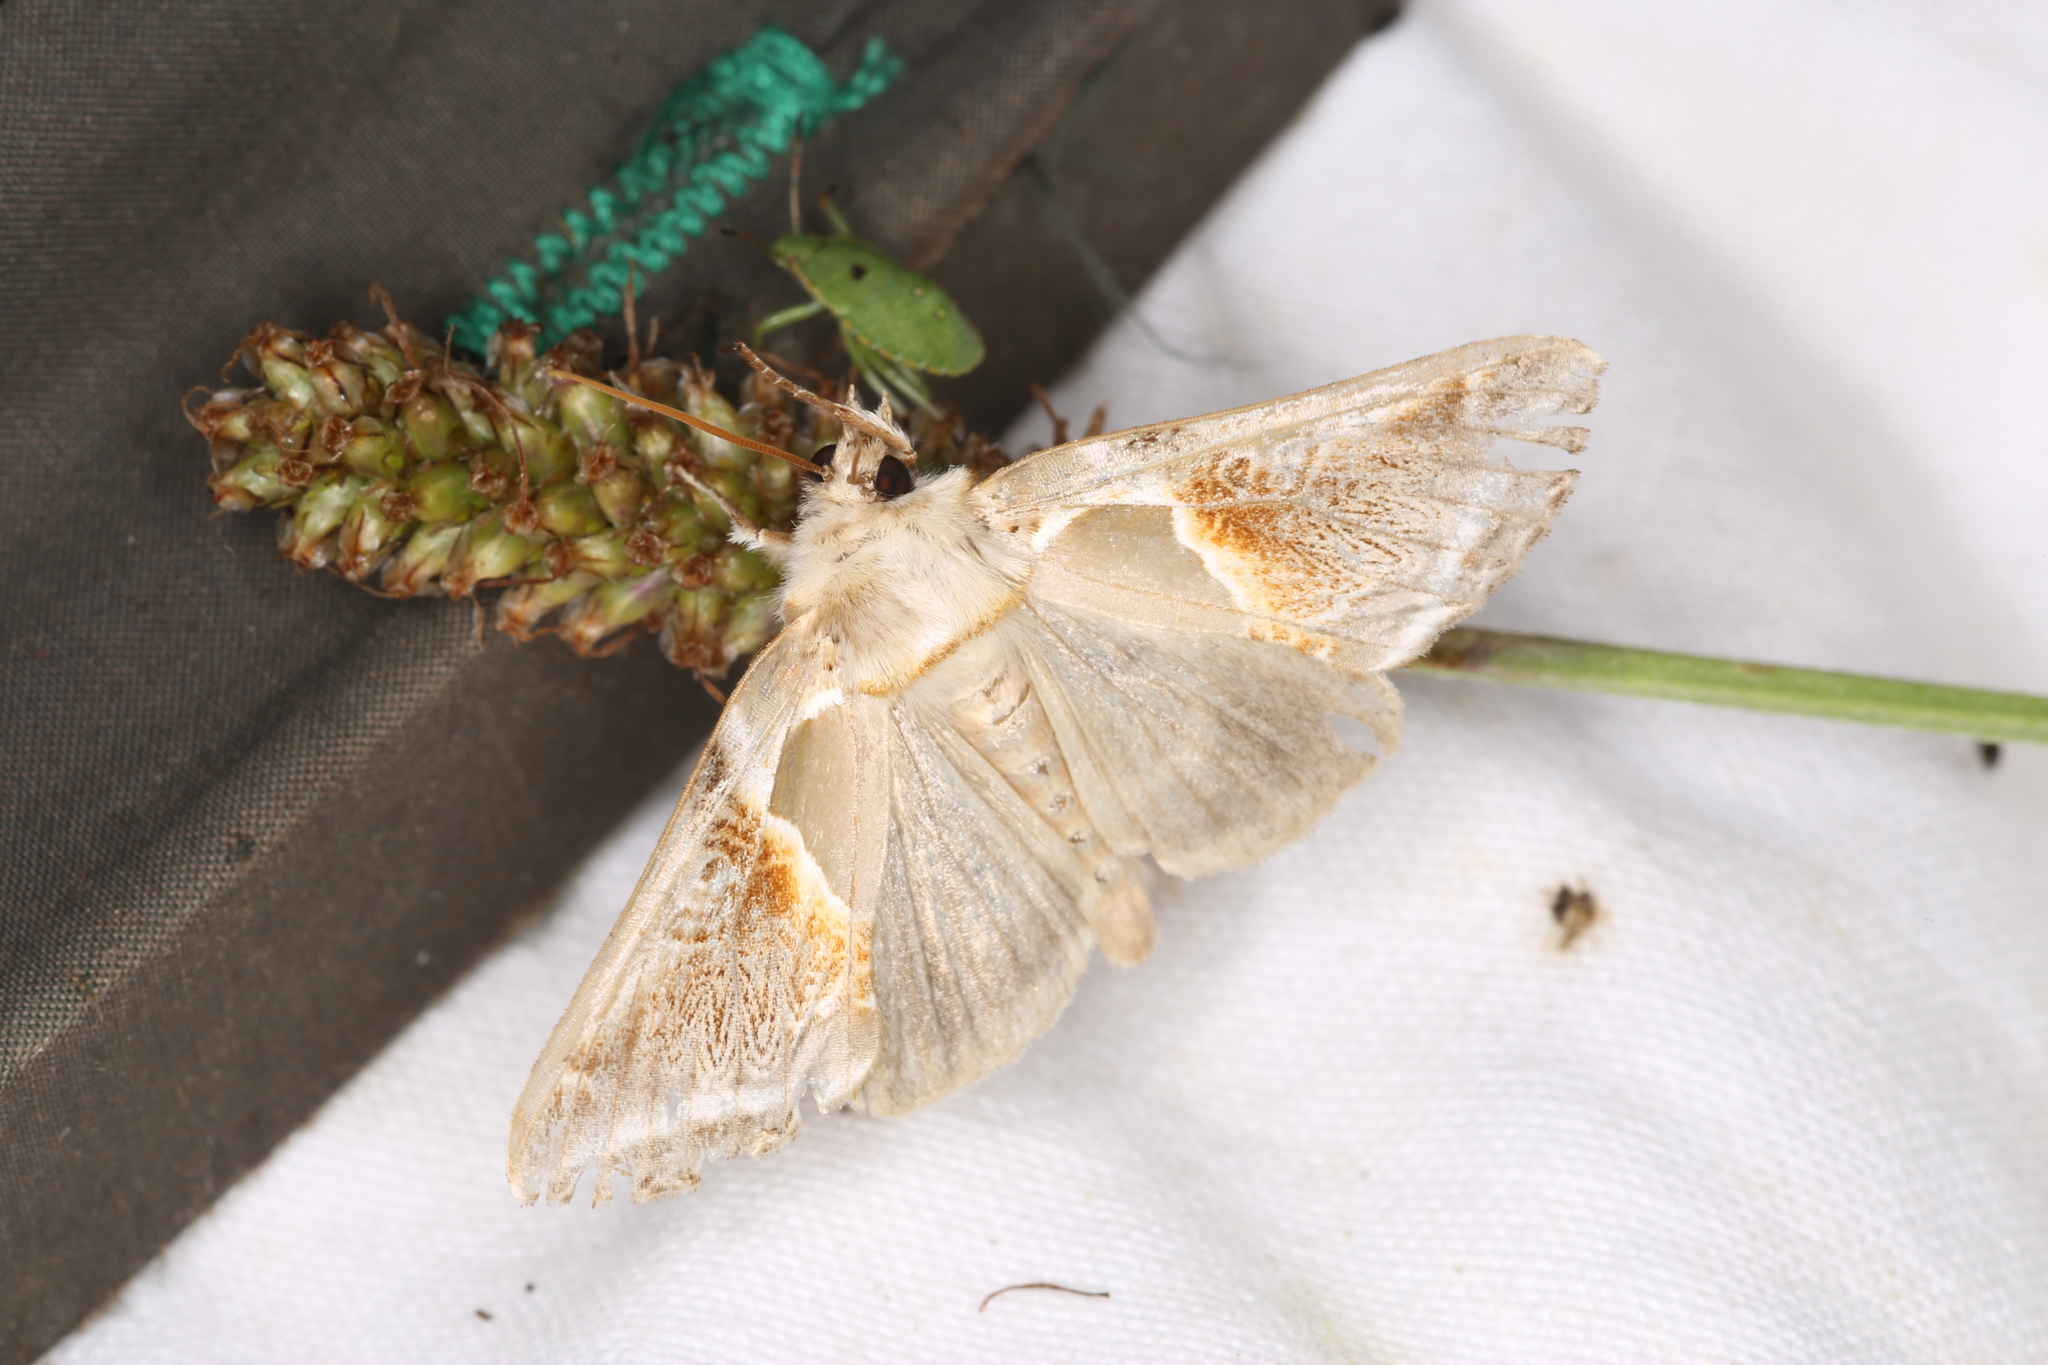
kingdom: Animalia
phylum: Arthropoda
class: Insecta
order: Lepidoptera
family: Drepanidae
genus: Habrosyne
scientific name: Habrosyne pyritoides
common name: Buff arches
